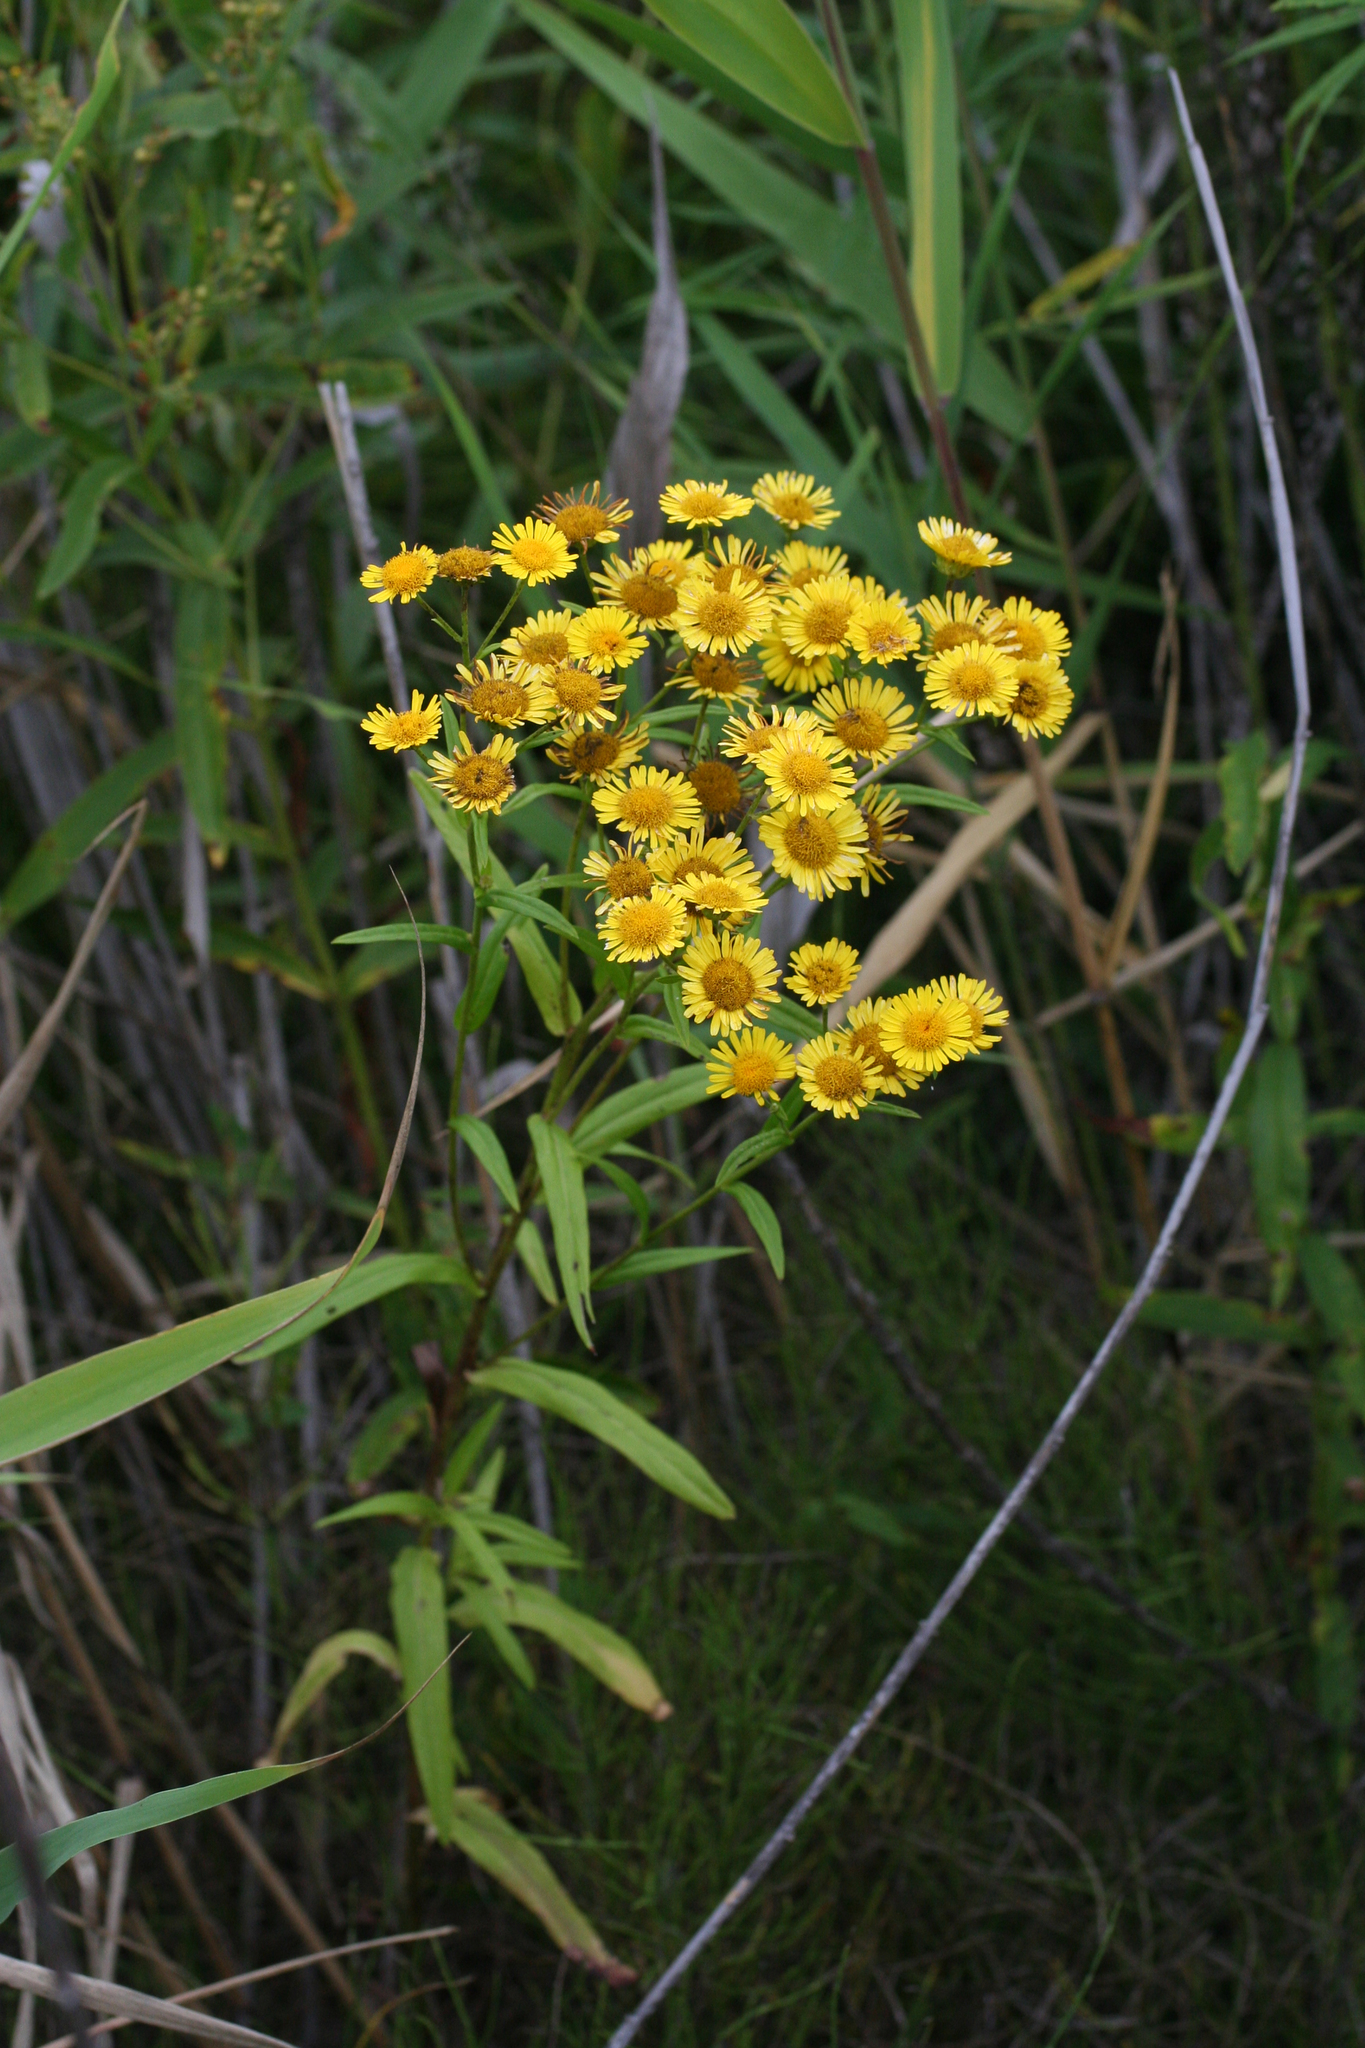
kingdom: Plantae
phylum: Tracheophyta
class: Magnoliopsida
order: Asterales
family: Asteraceae
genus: Inula
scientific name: Inula linariifolia
